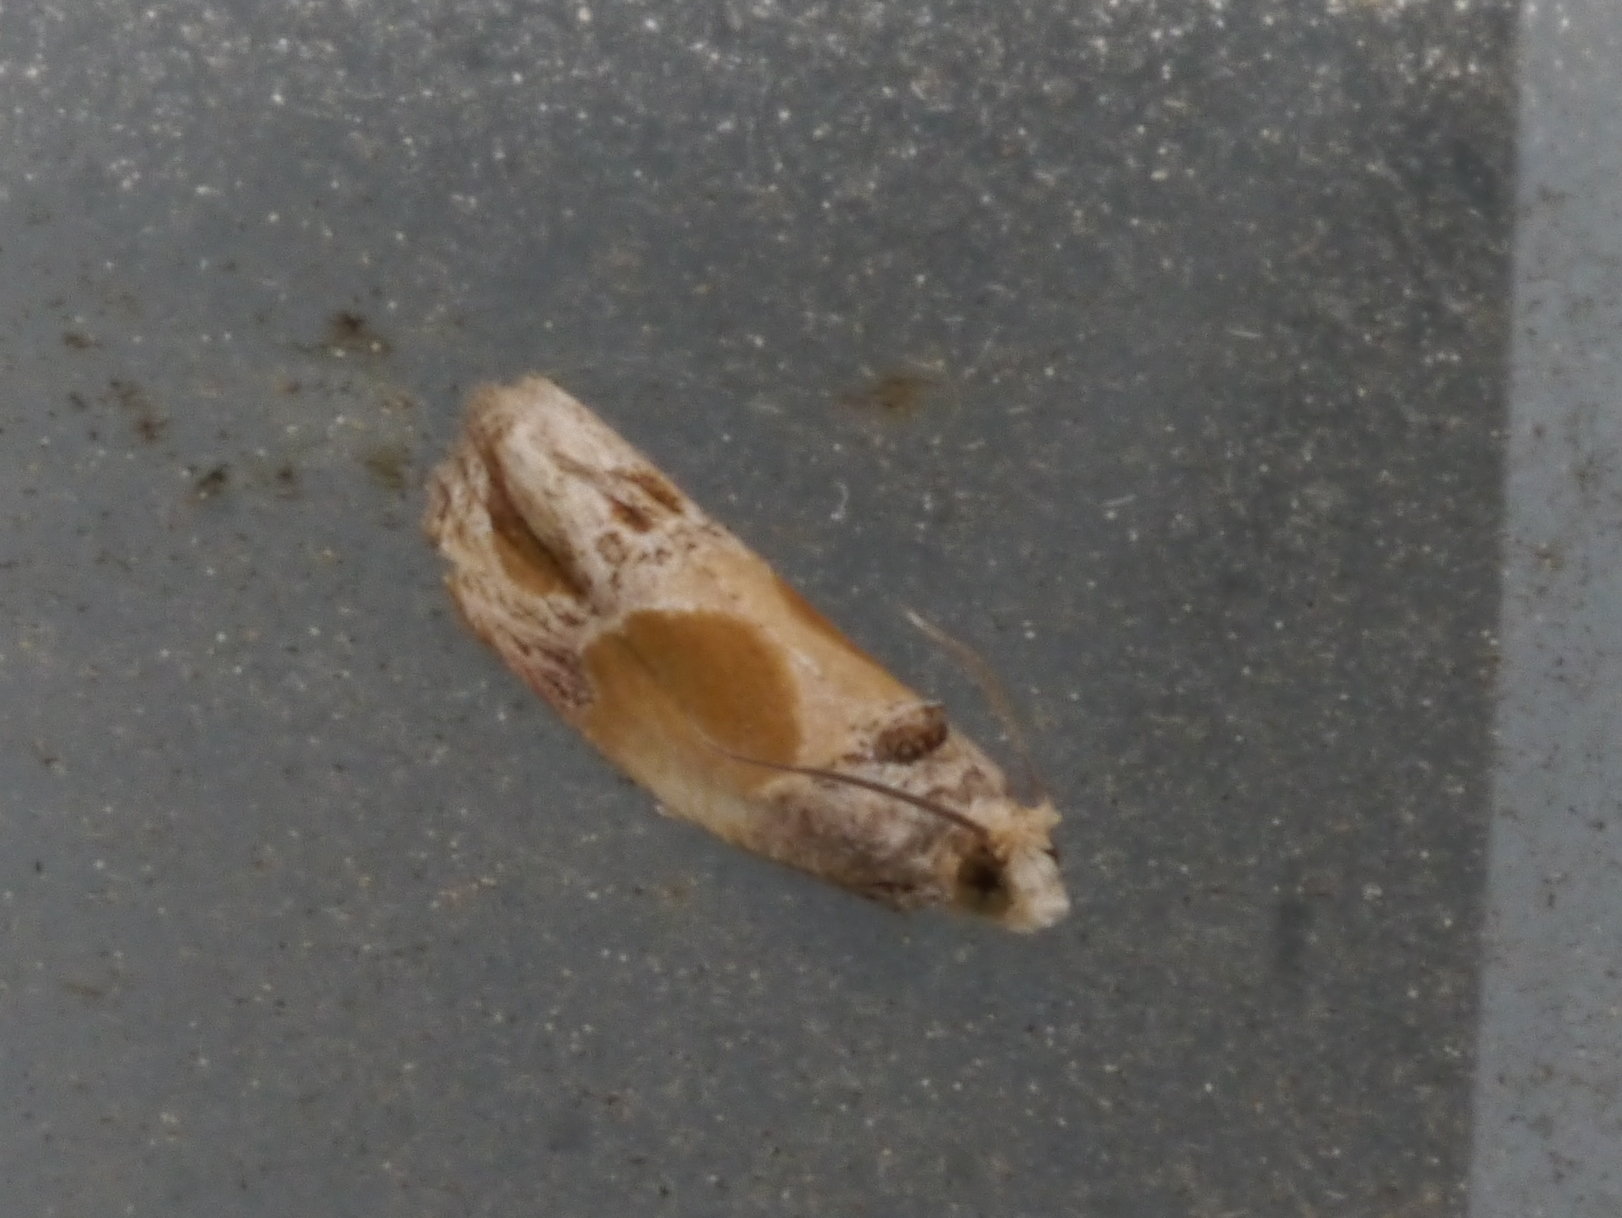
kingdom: Animalia
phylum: Arthropoda
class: Insecta
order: Lepidoptera
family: Tortricidae
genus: Eumarozia
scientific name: Eumarozia malachitana
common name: Sculptured moth
